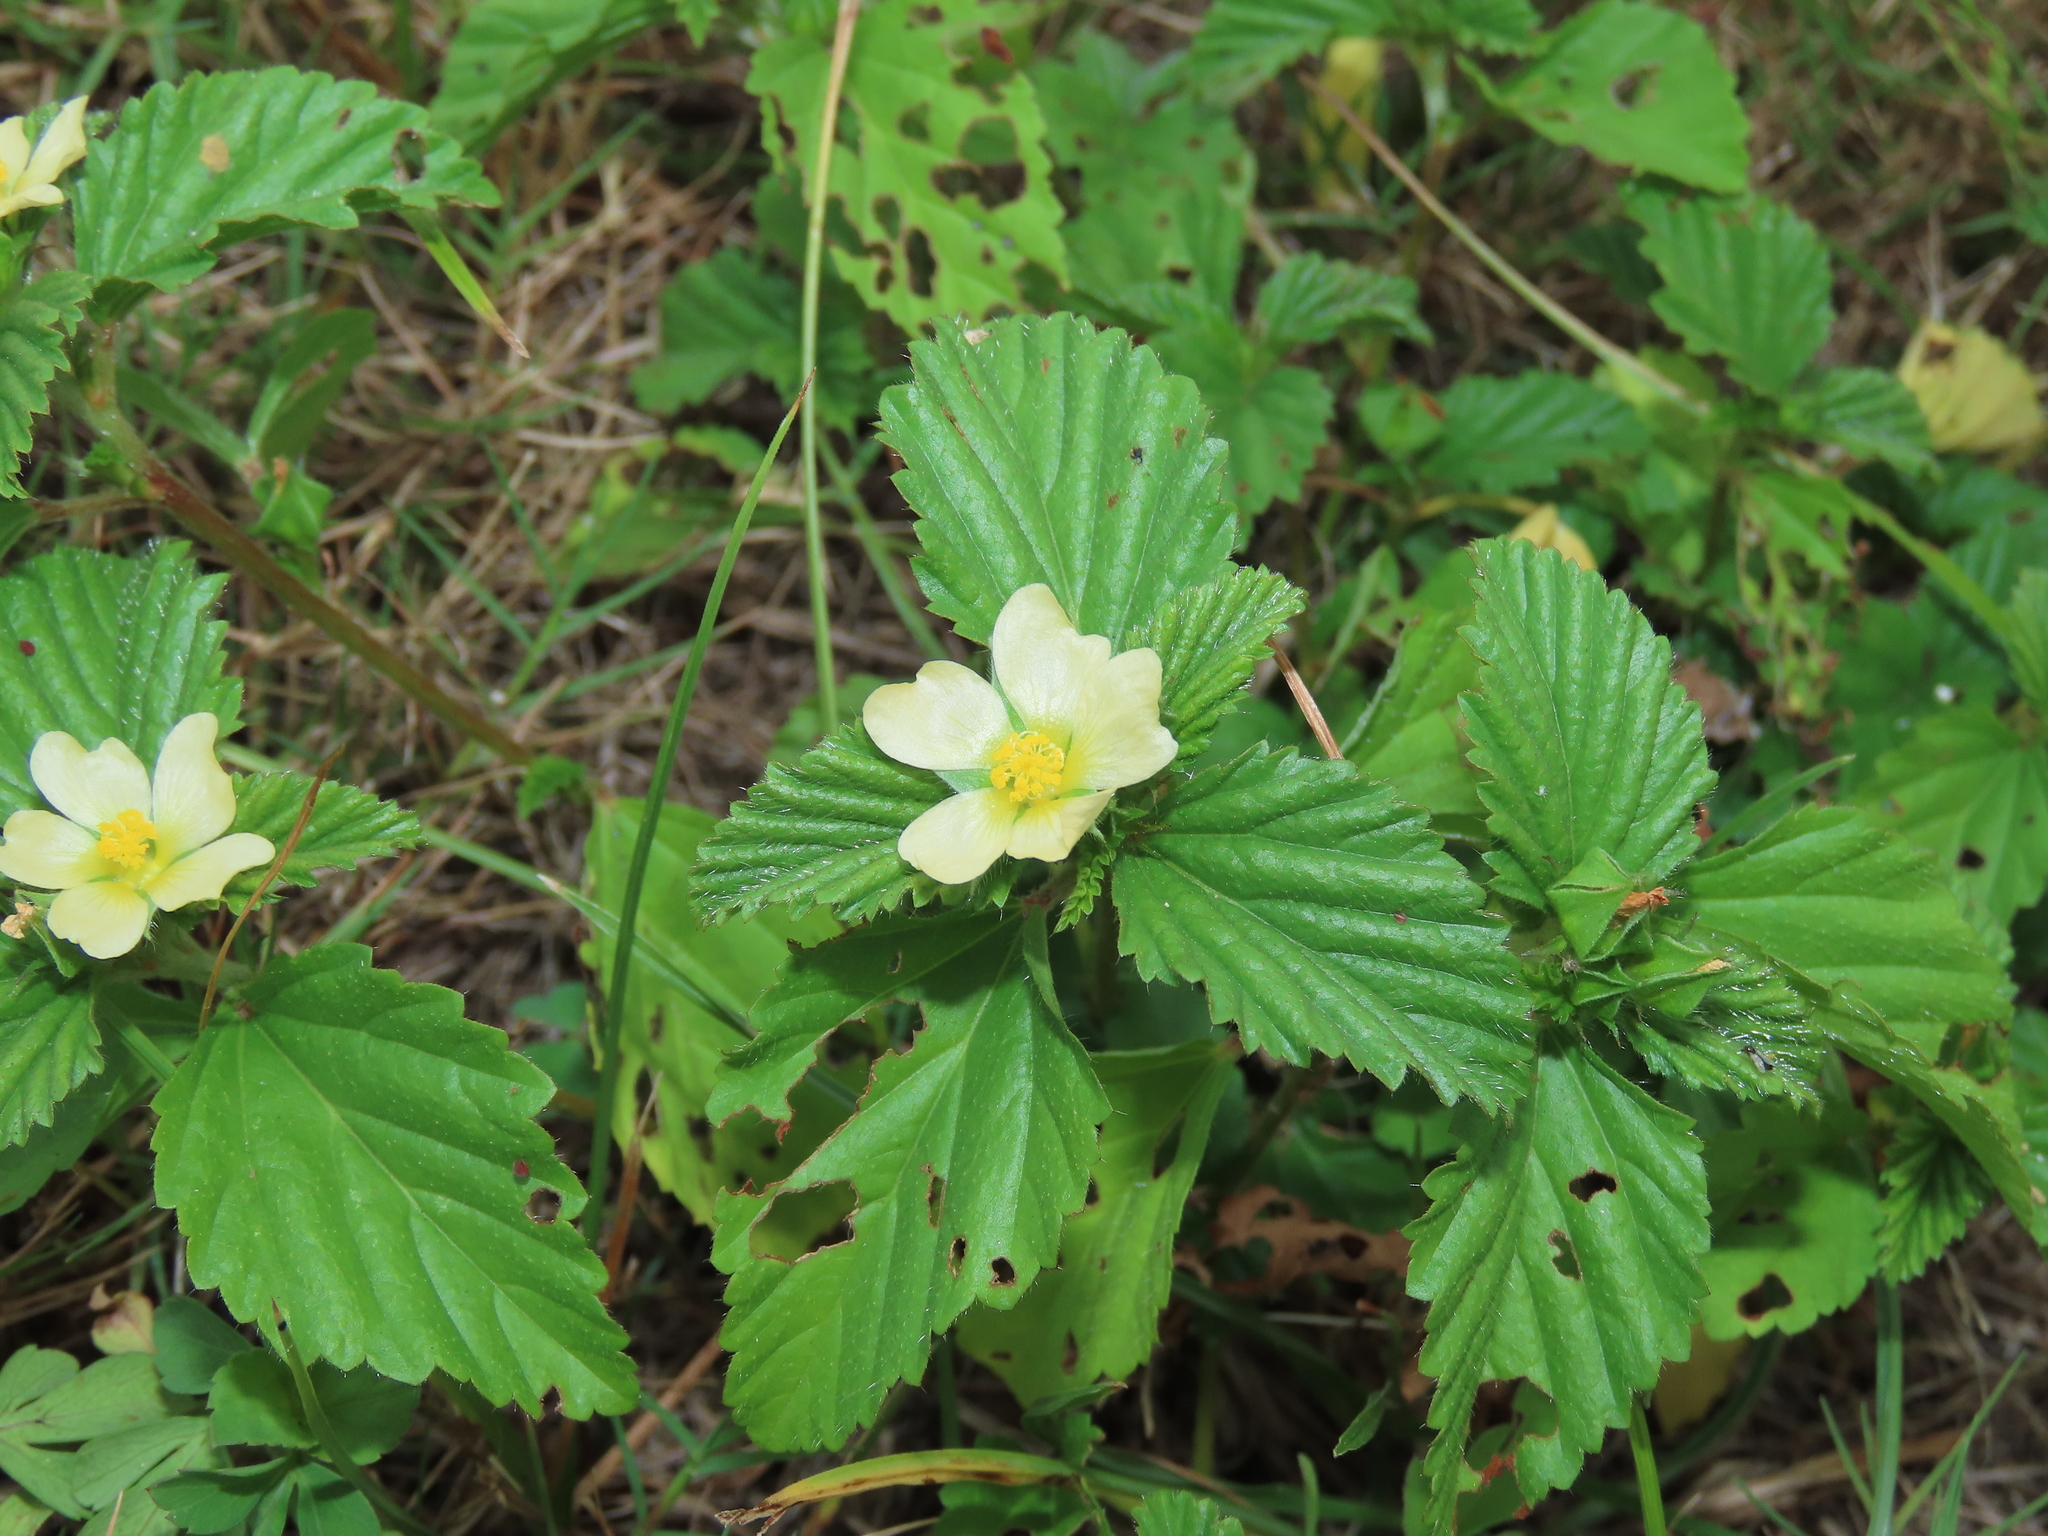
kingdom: Plantae
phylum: Tracheophyta
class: Magnoliopsida
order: Malvales
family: Malvaceae
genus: Malvastrum
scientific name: Malvastrum coromandelianum
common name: Threelobe false mallow
